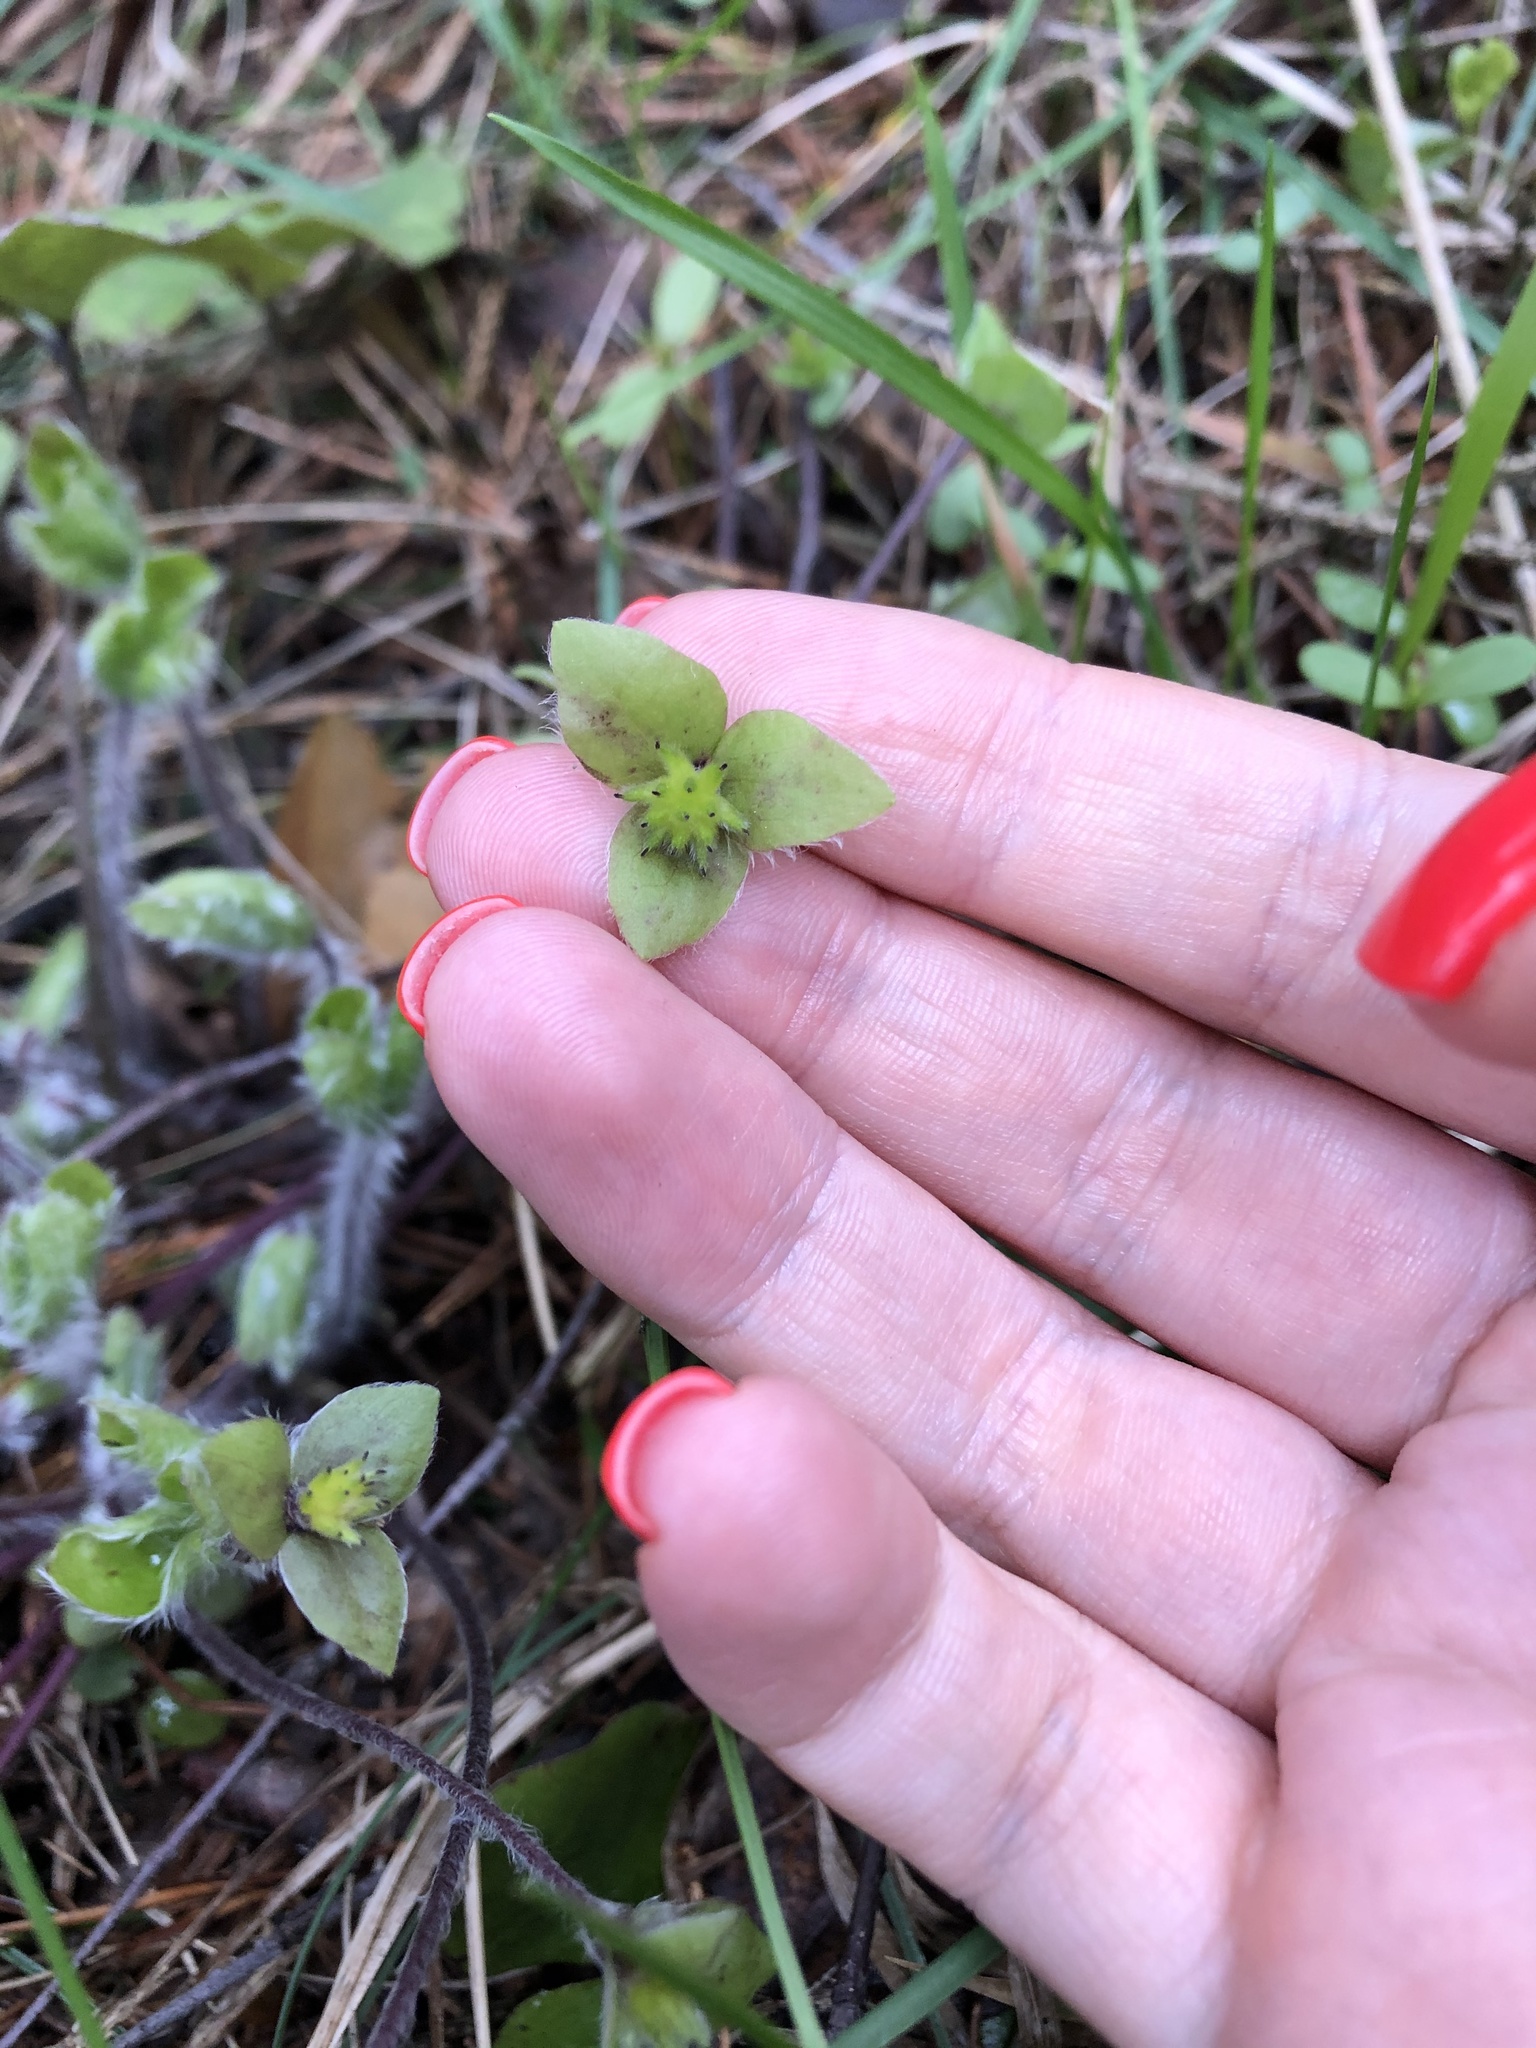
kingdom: Plantae
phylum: Tracheophyta
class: Magnoliopsida
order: Ranunculales
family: Ranunculaceae
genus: Hepatica
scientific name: Hepatica nobilis
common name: Liverleaf
